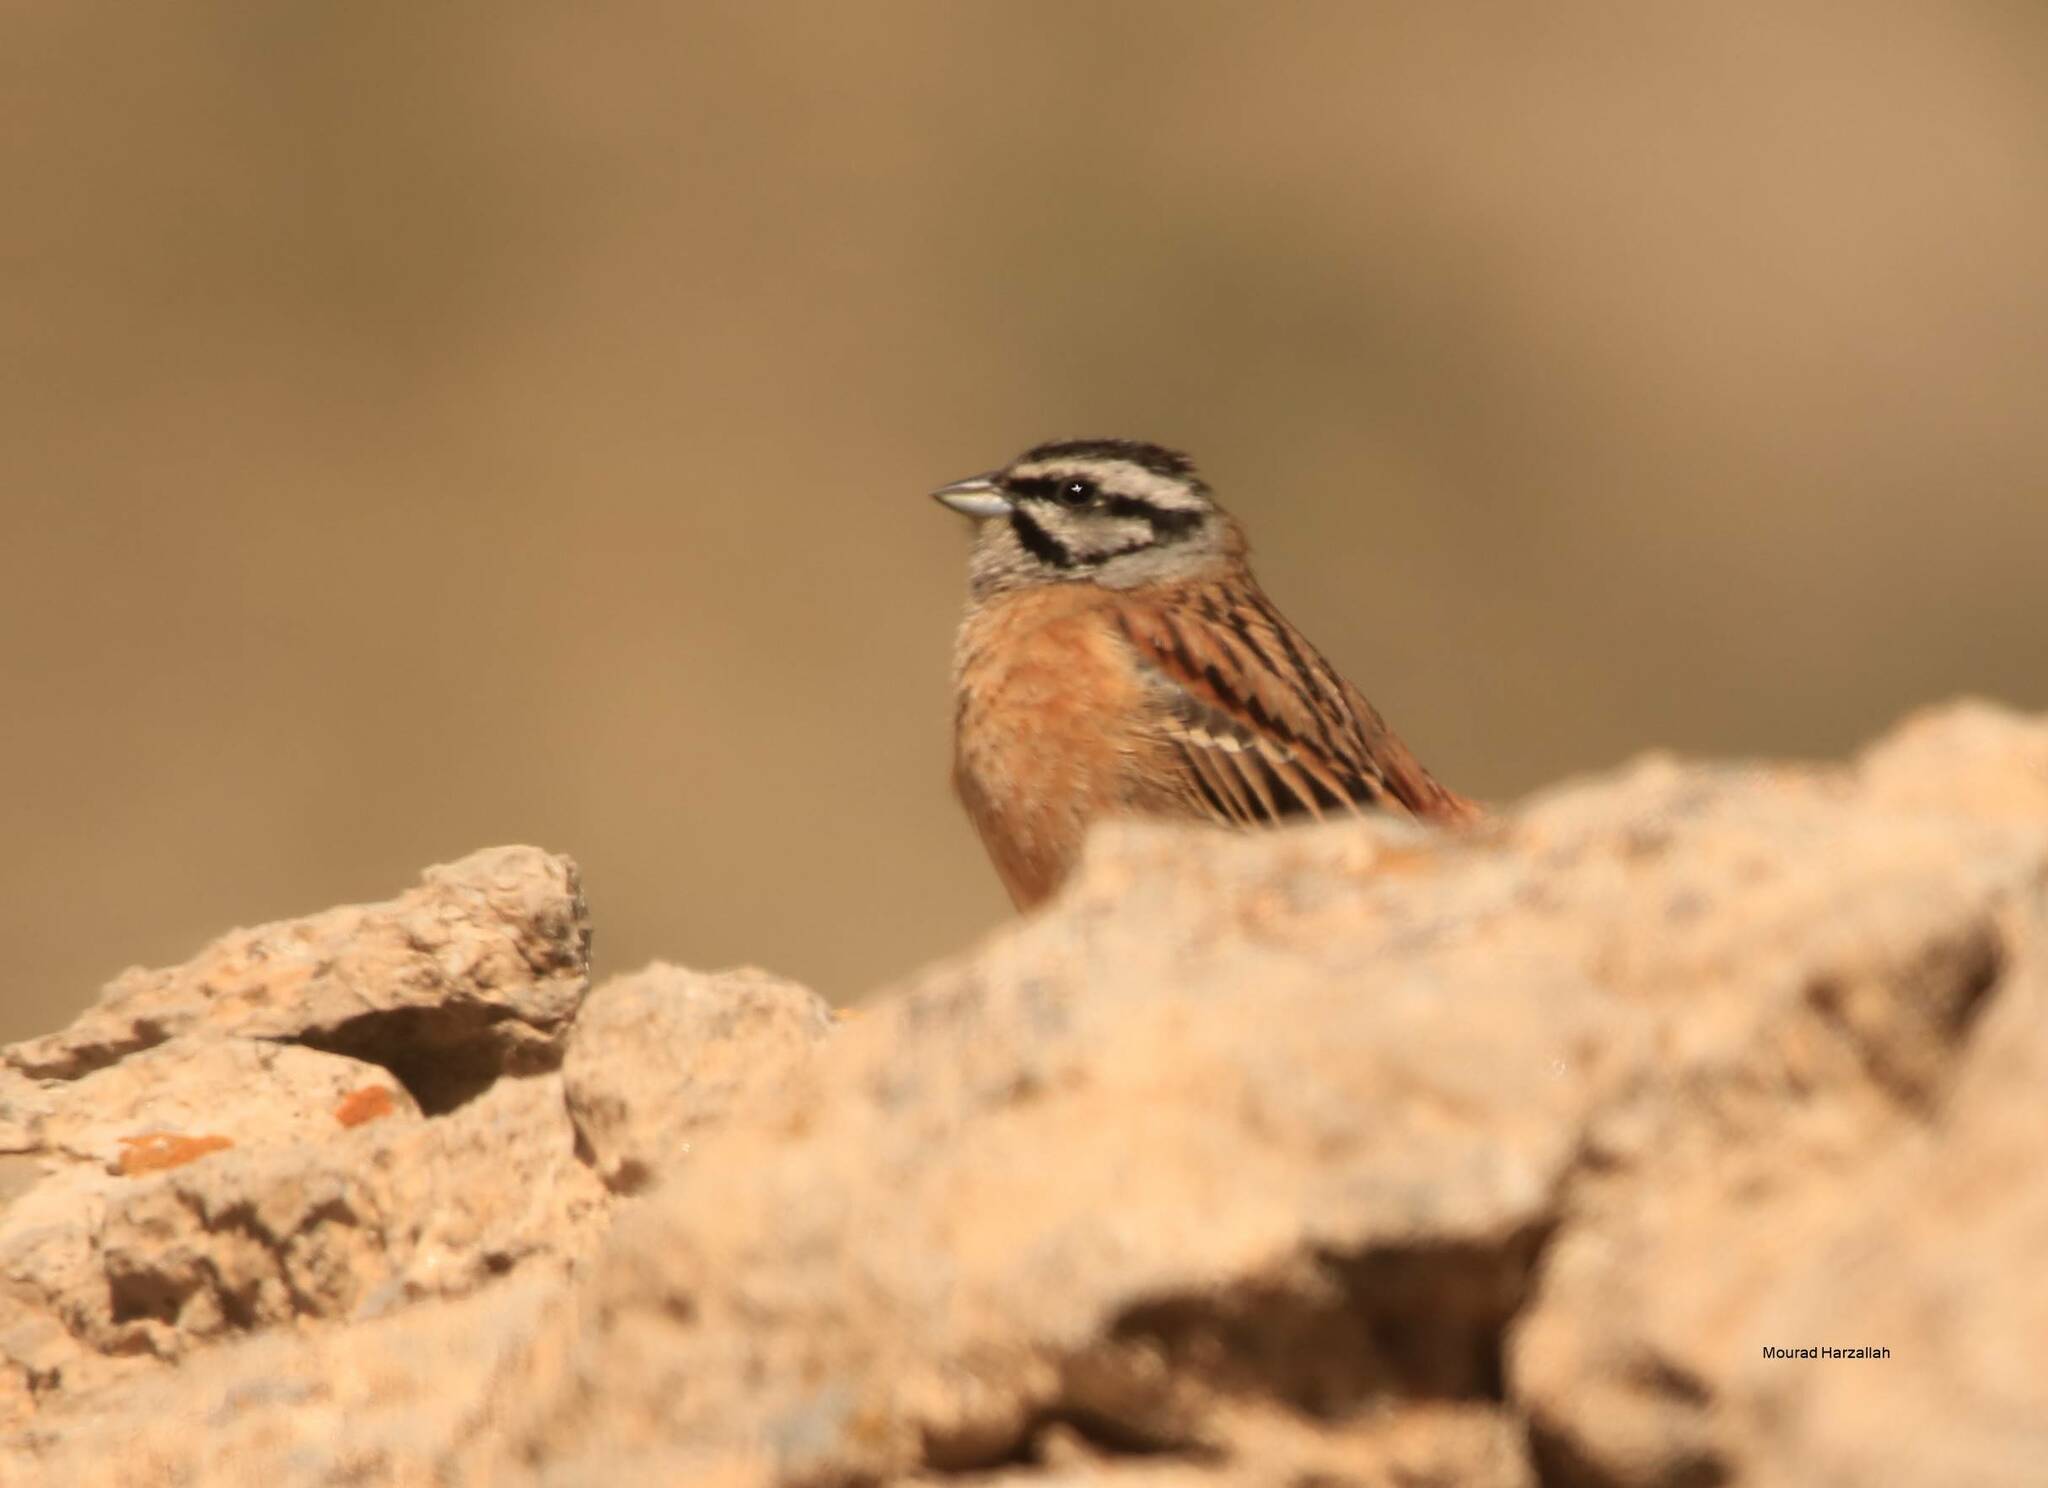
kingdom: Animalia
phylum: Chordata
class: Aves
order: Passeriformes
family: Emberizidae
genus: Emberiza
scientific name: Emberiza cia
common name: Rock bunting
